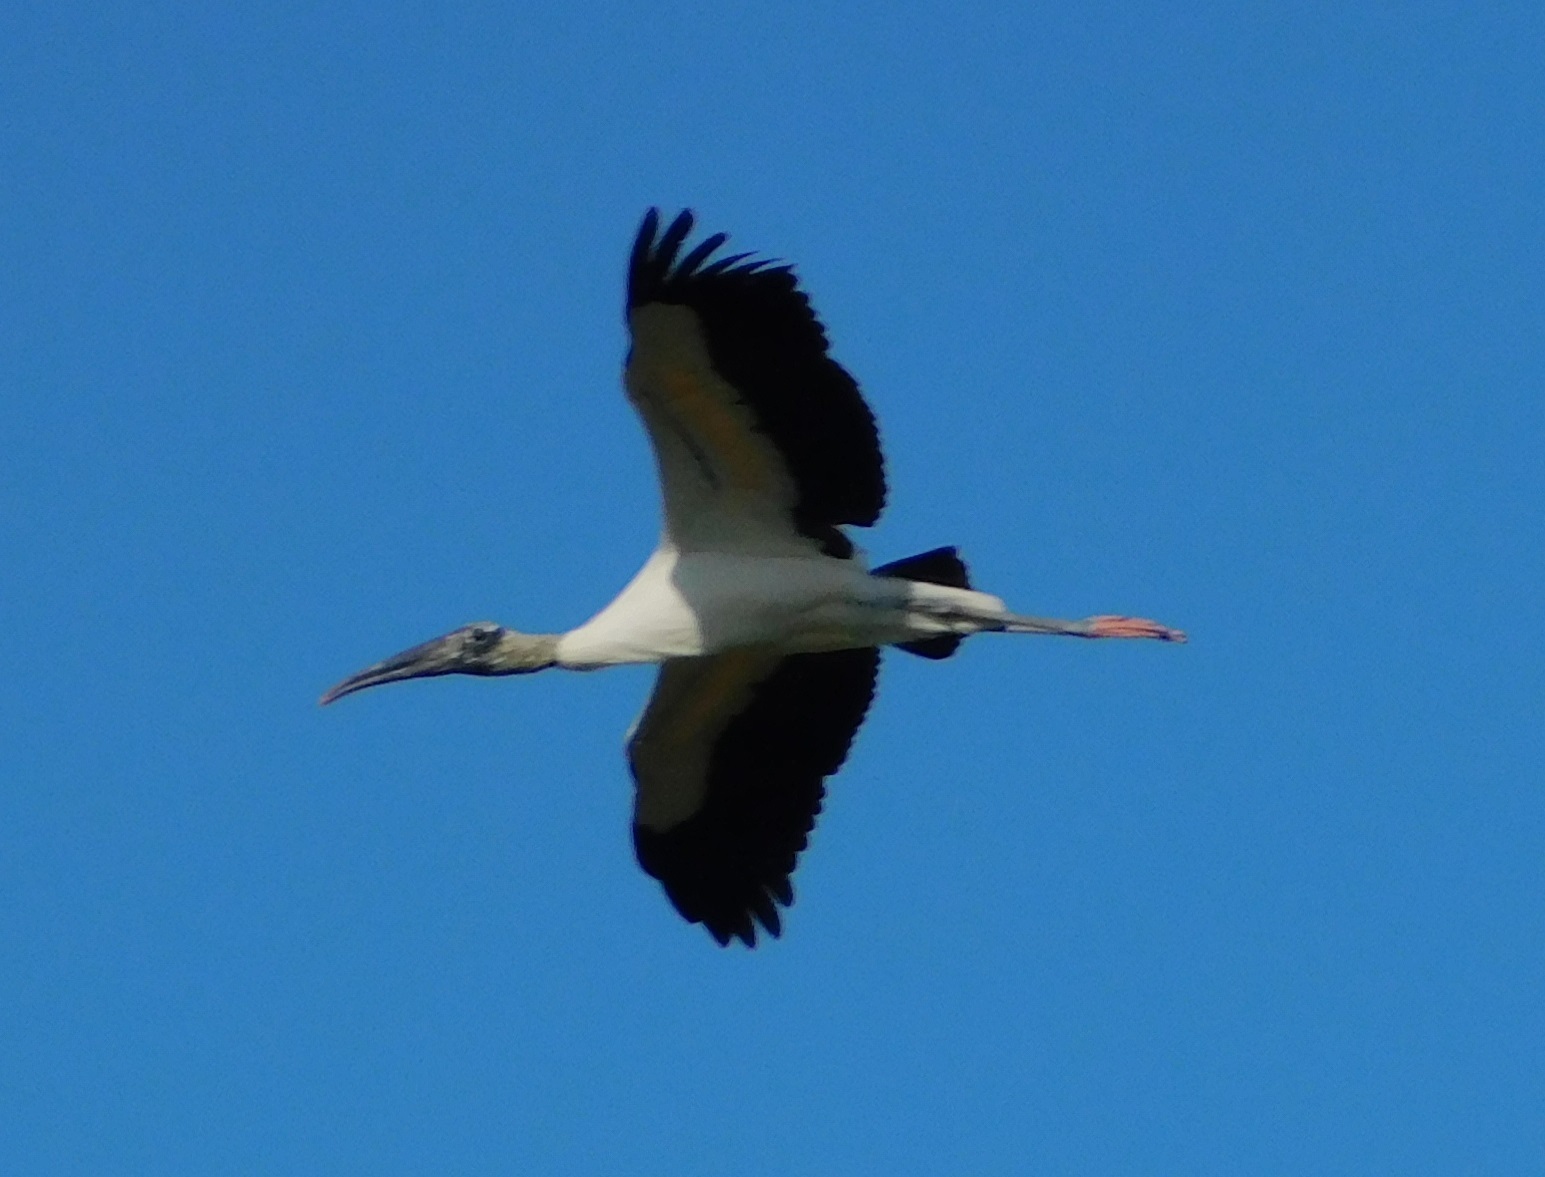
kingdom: Animalia
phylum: Chordata
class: Aves
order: Ciconiiformes
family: Ciconiidae
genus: Mycteria
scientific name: Mycteria americana
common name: Wood stork
